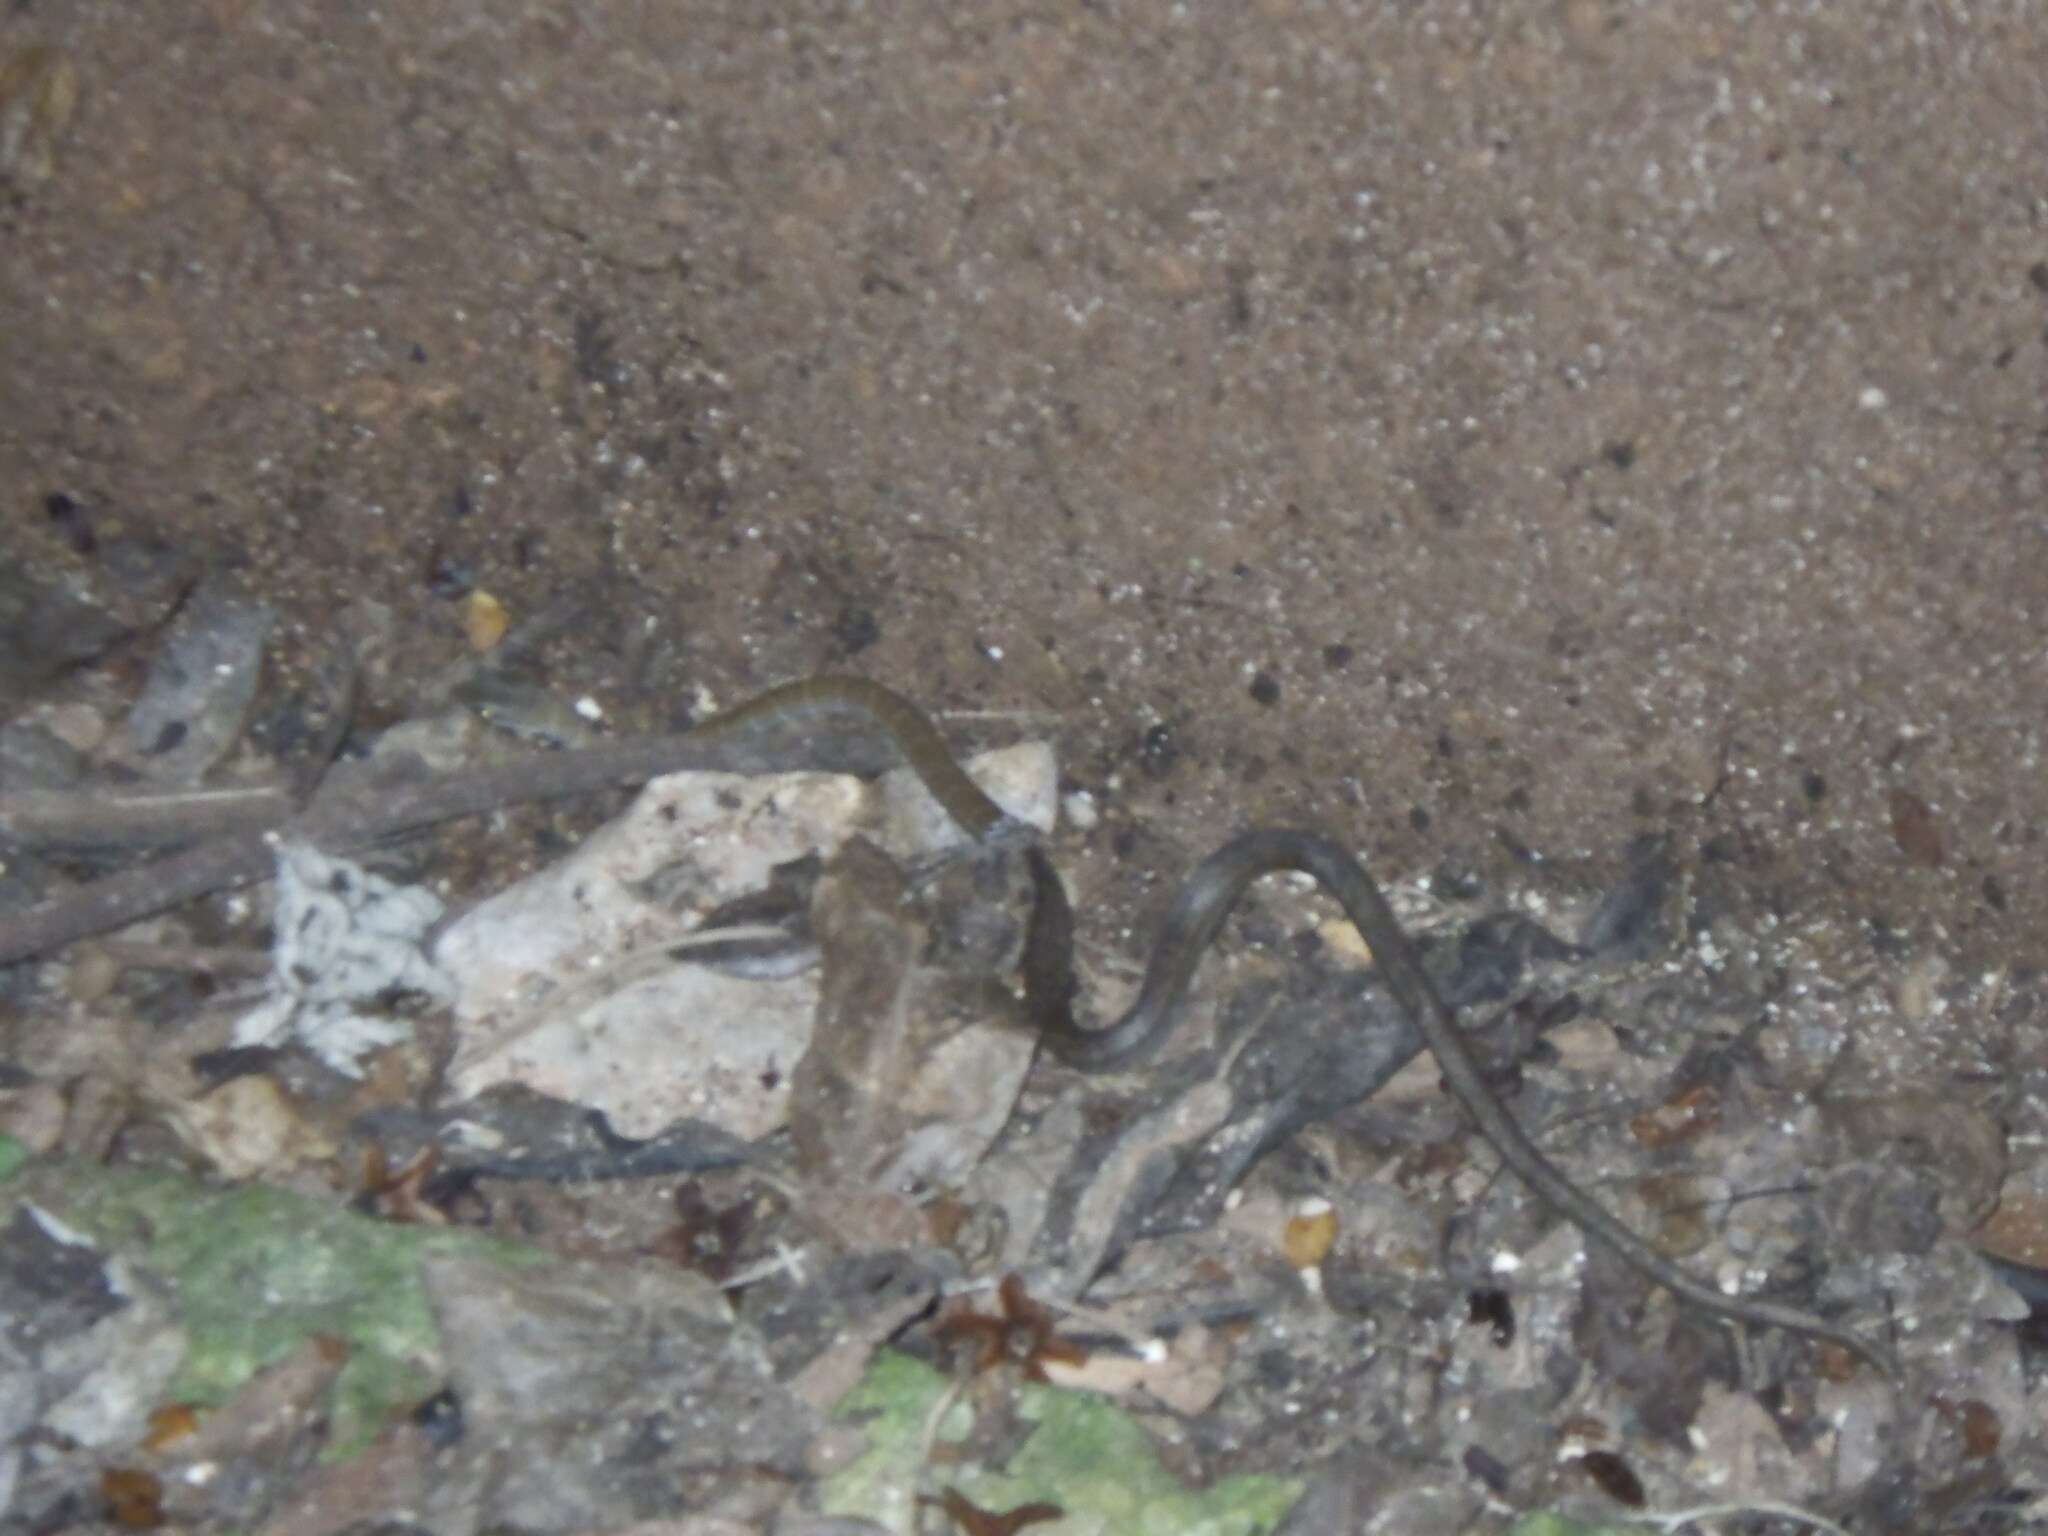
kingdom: Animalia
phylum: Chordata
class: Squamata
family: Colubridae
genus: Mastigodryas
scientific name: Mastigodryas melanolomus
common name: Salmon-bellied racer
